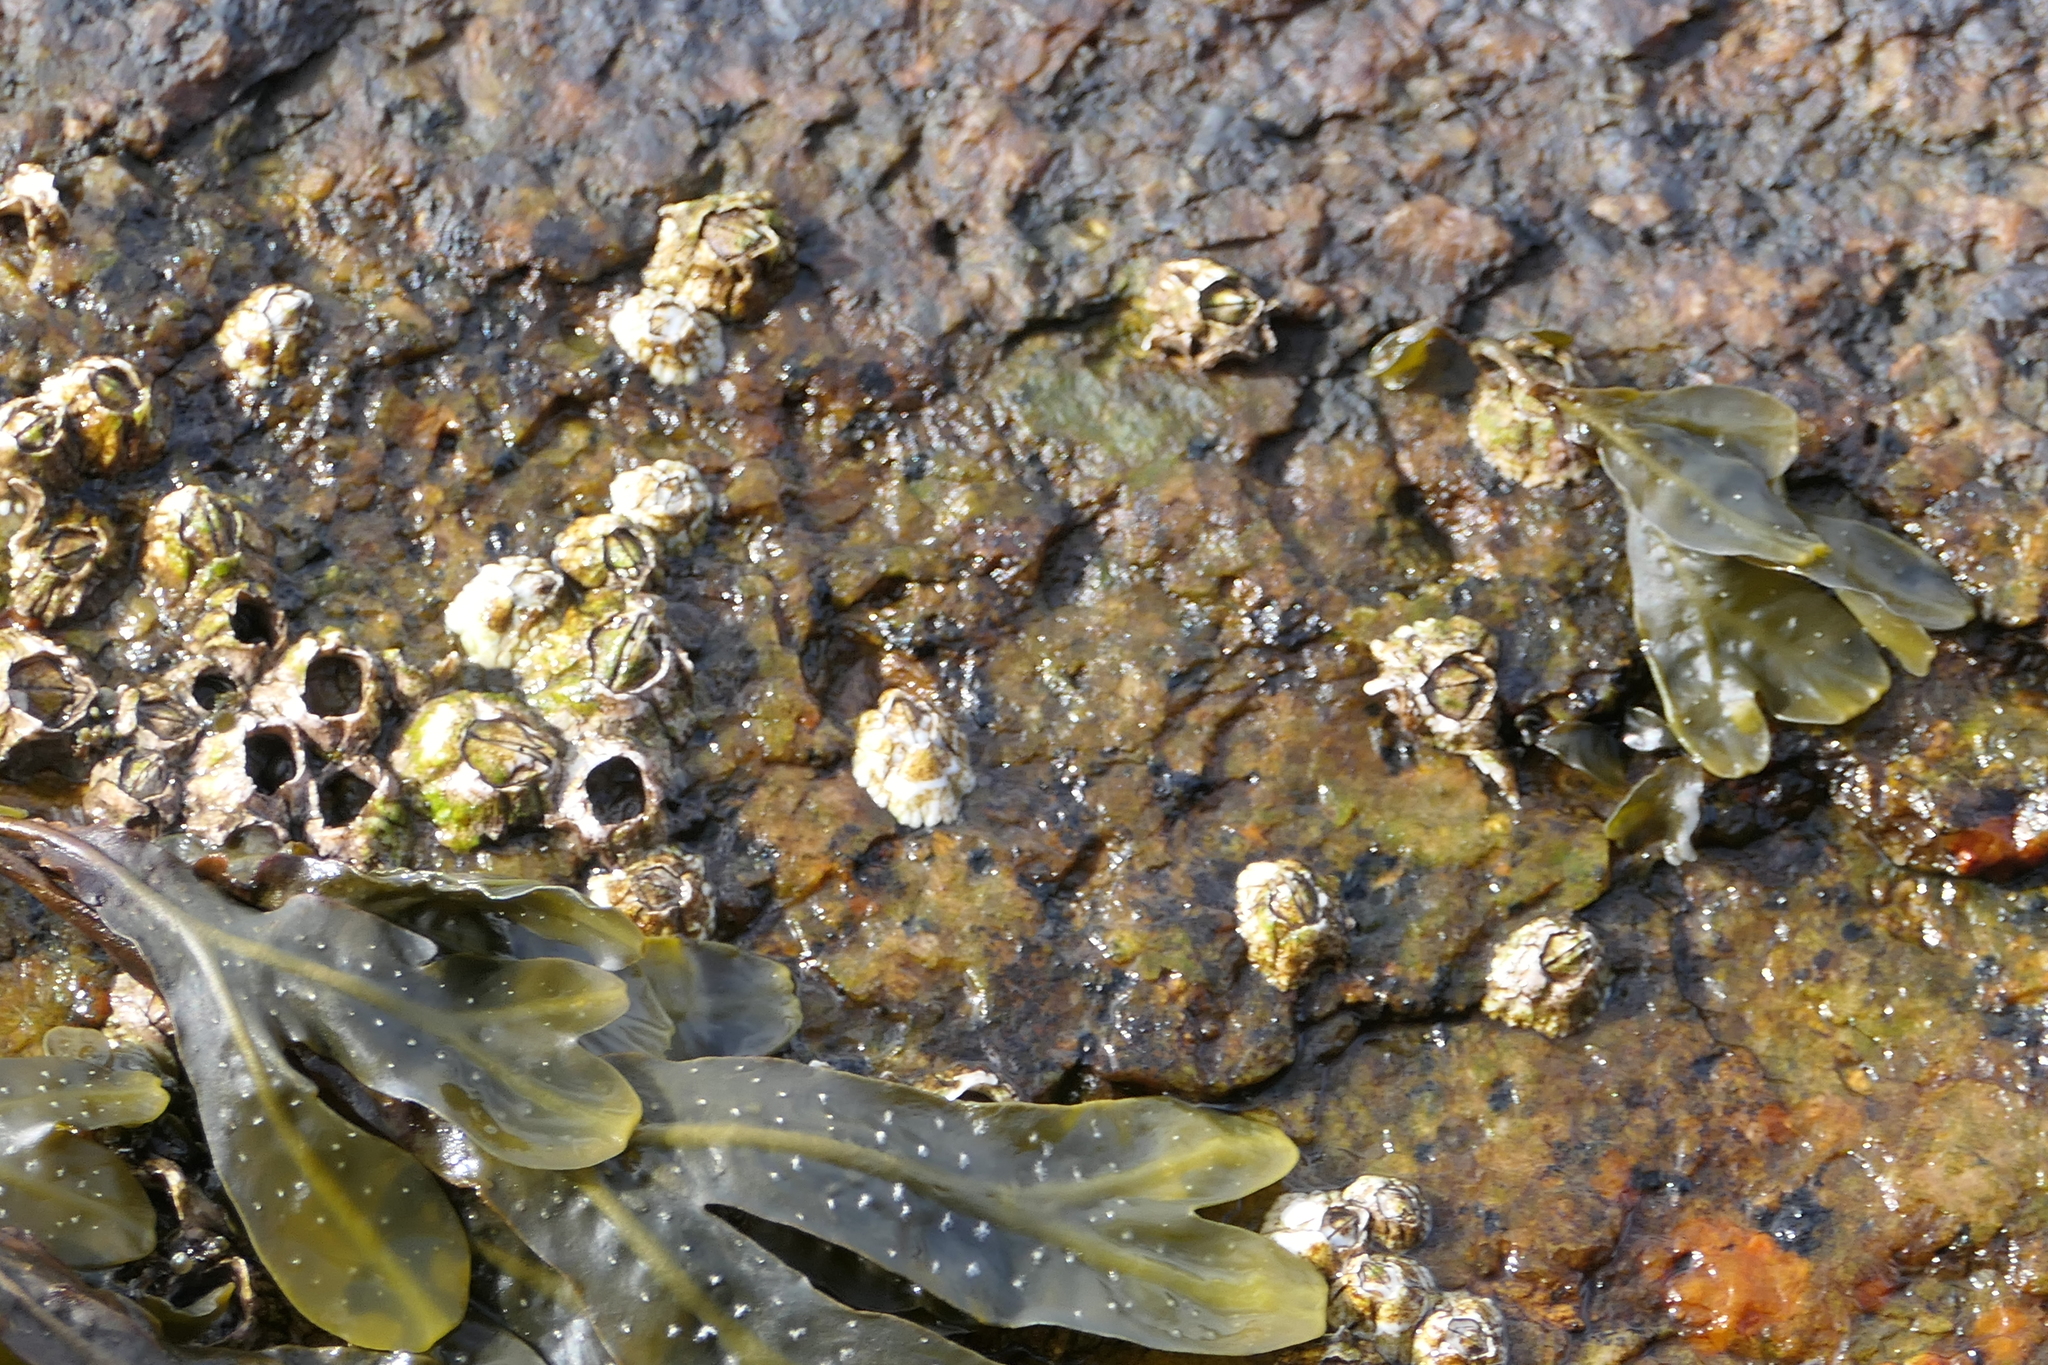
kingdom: Animalia
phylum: Arthropoda
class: Maxillopoda
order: Sessilia
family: Archaeobalanidae
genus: Semibalanus
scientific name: Semibalanus balanoides
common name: Acorn barnacle
